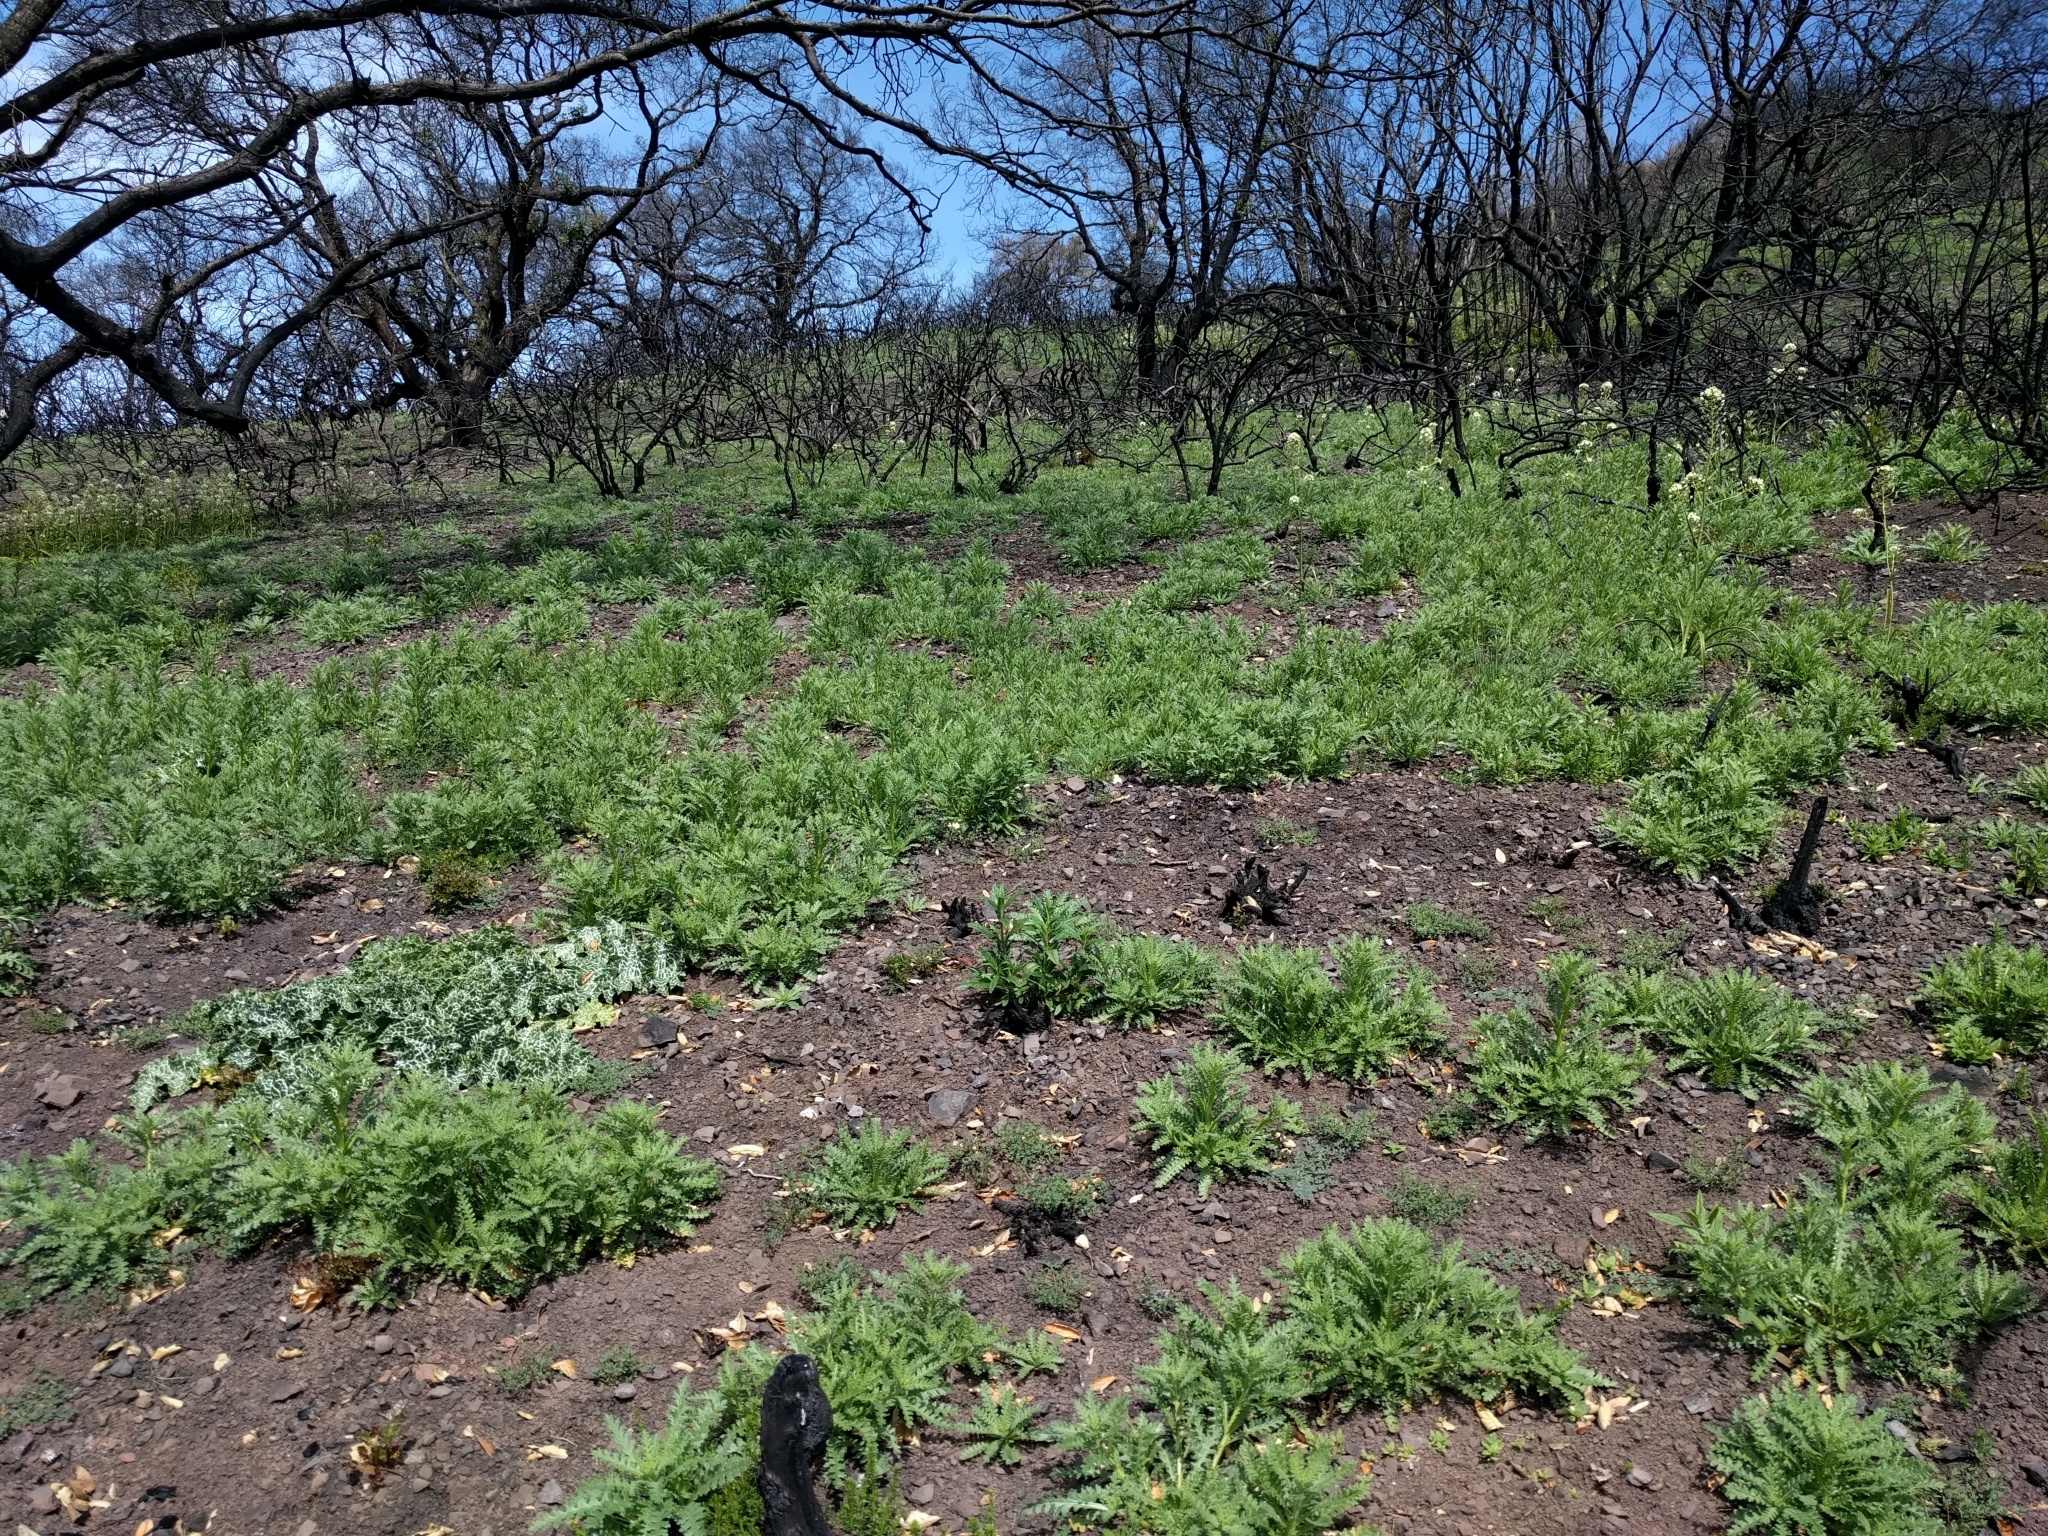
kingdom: Plantae
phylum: Tracheophyta
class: Magnoliopsida
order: Boraginales
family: Hydrophyllaceae
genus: Emmenanthe
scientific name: Emmenanthe penduliflora
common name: Whispering-bells
